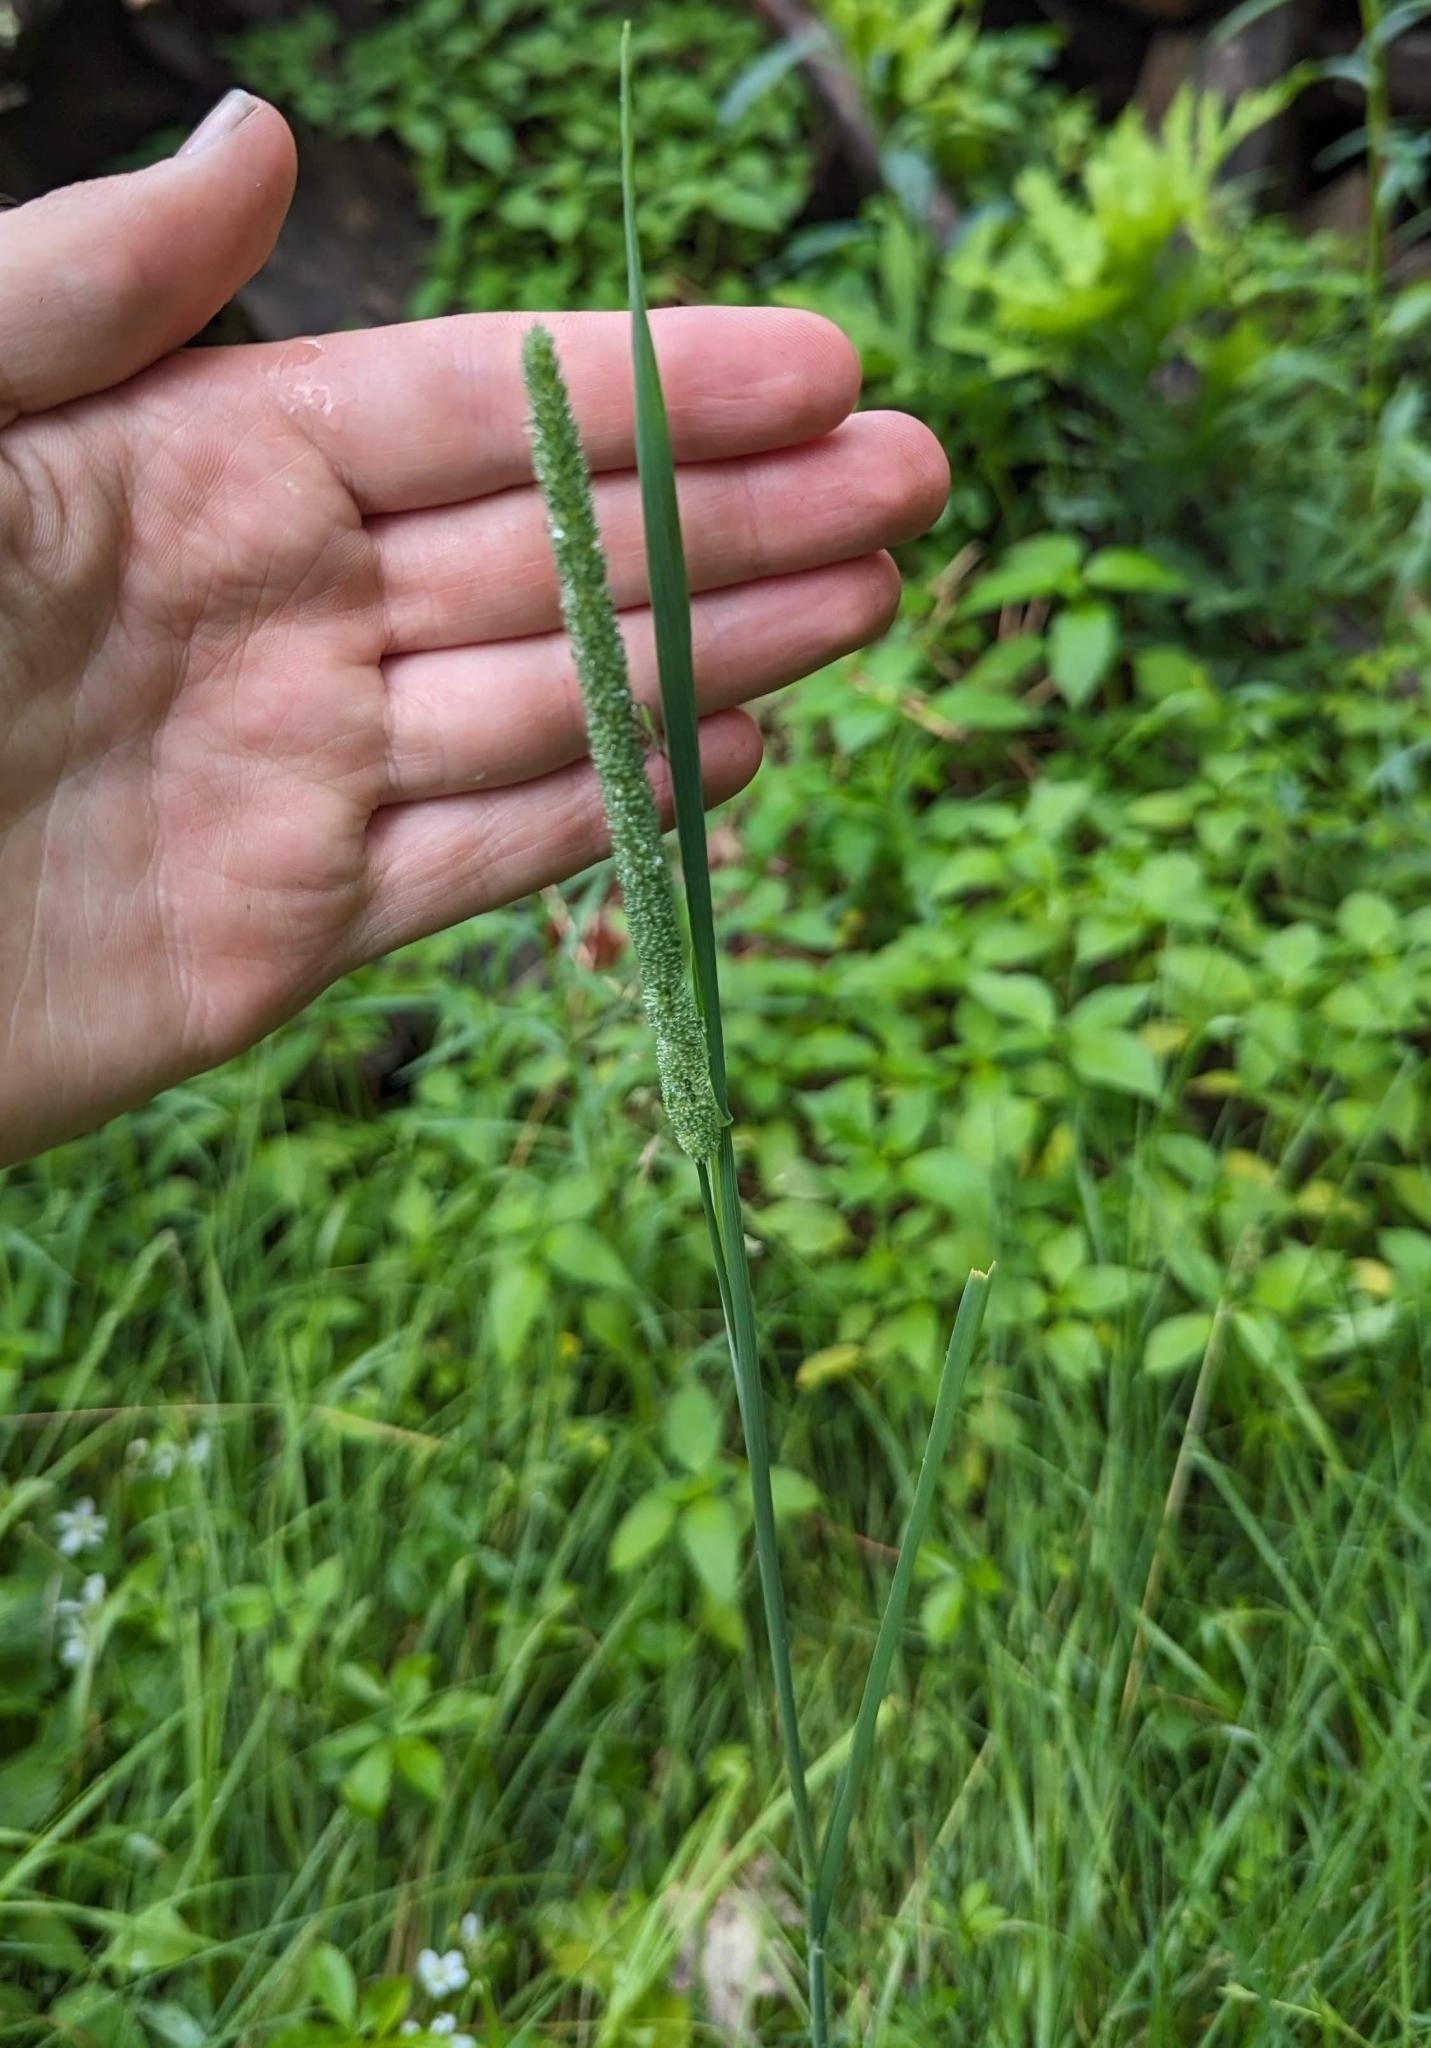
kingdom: Plantae
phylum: Tracheophyta
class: Liliopsida
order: Poales
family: Poaceae
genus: Phleum
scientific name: Phleum pratense
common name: Timothy grass
